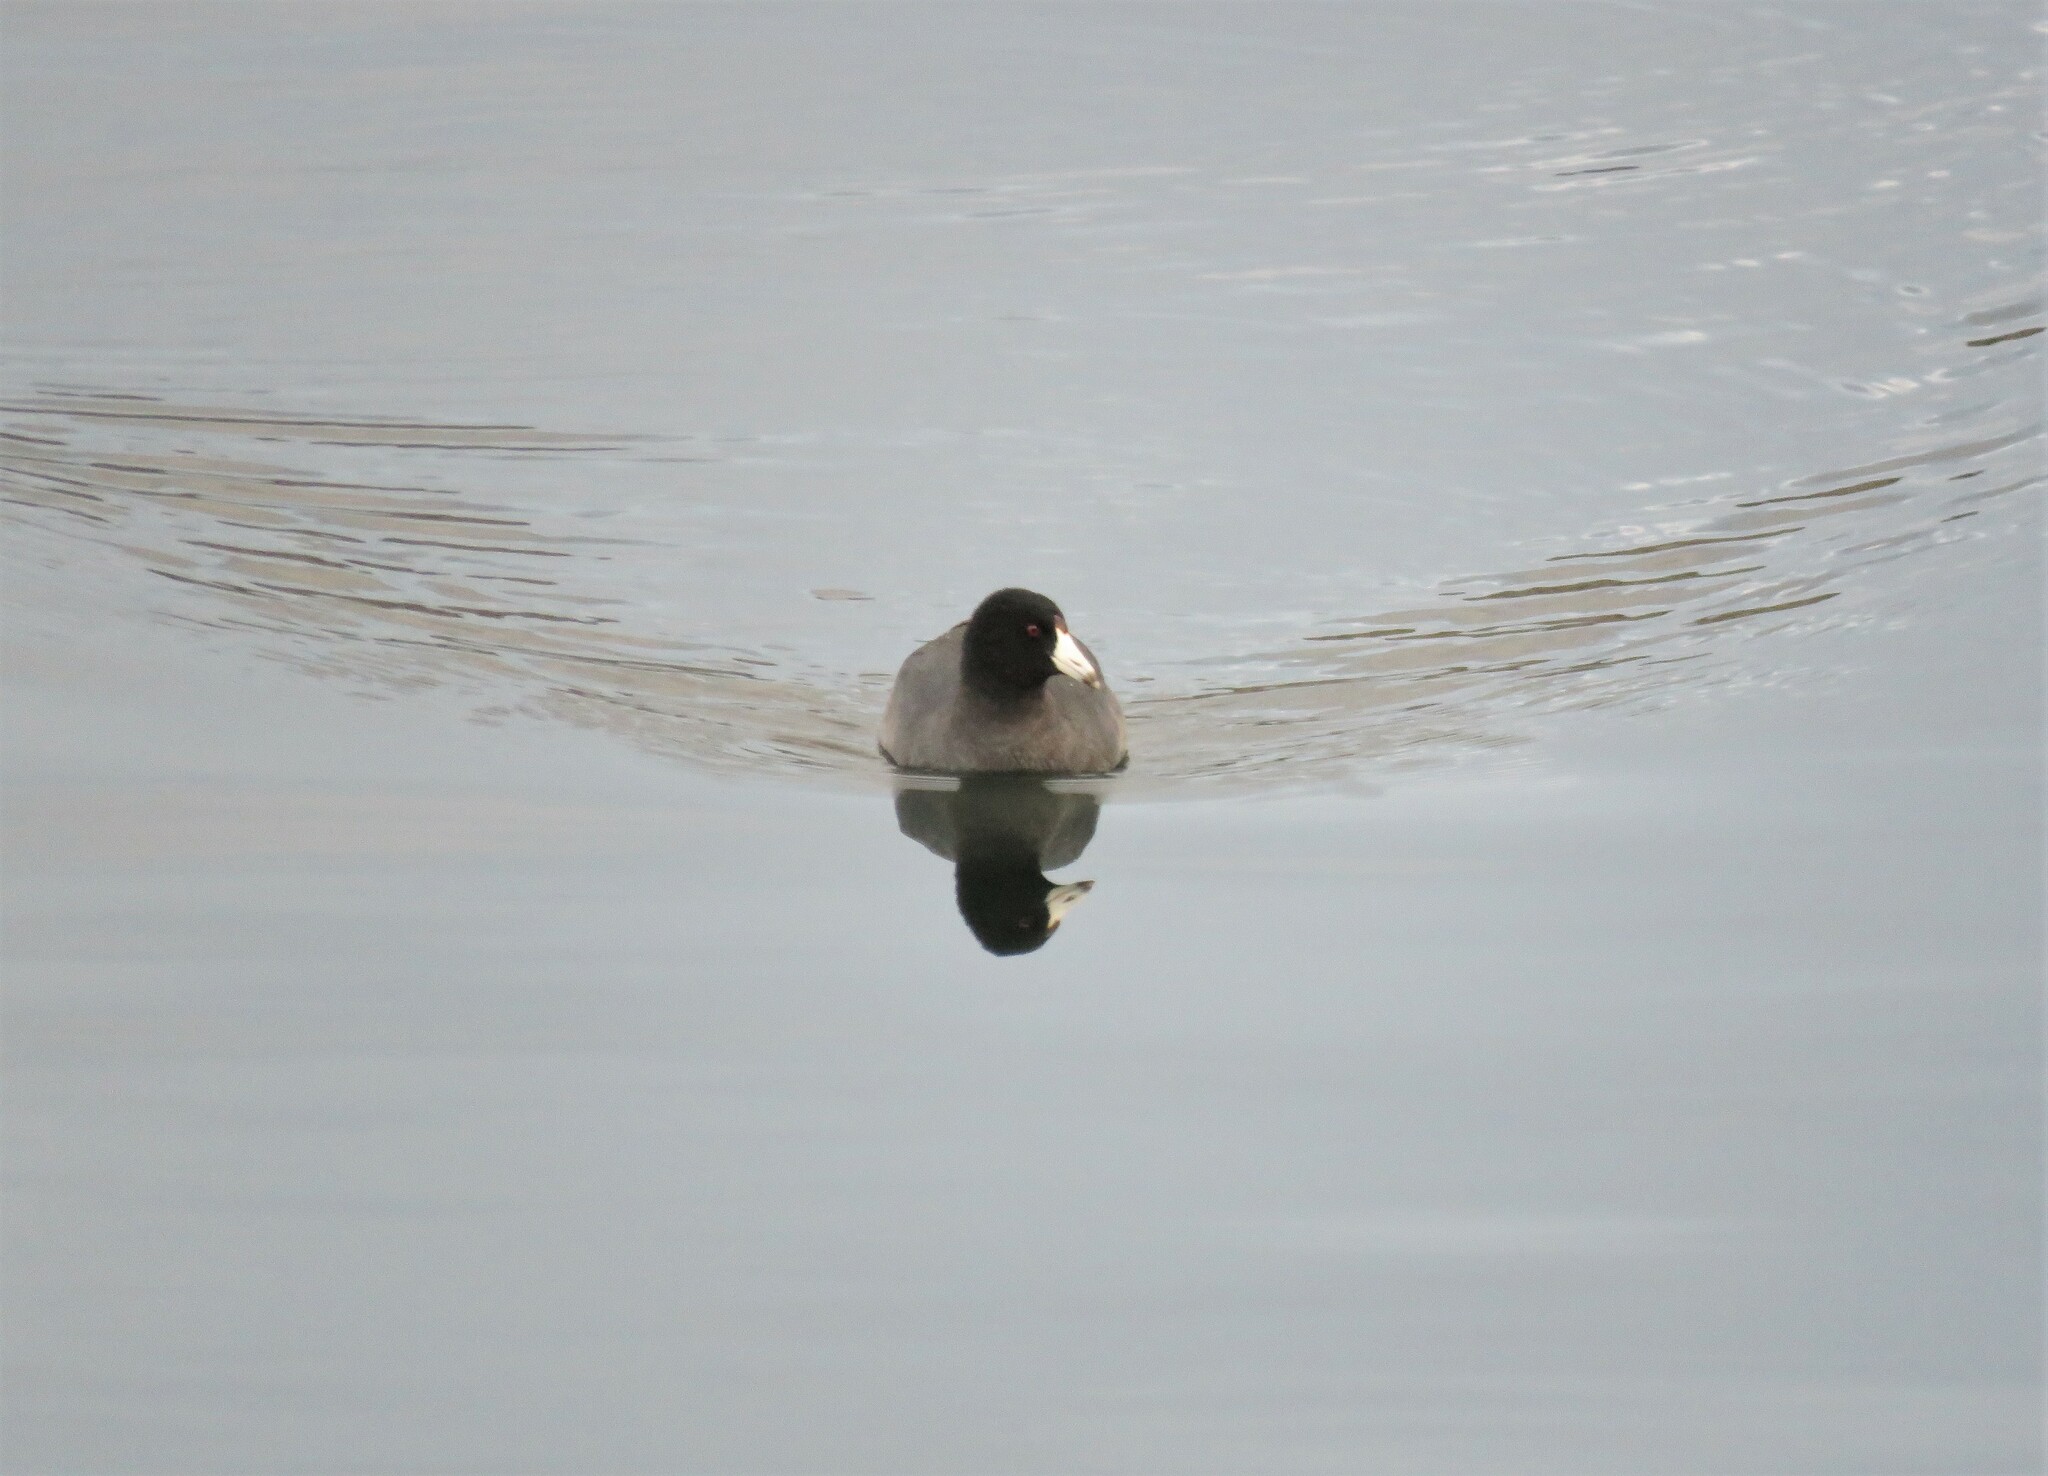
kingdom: Animalia
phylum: Chordata
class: Aves
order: Gruiformes
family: Rallidae
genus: Fulica
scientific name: Fulica americana
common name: American coot
